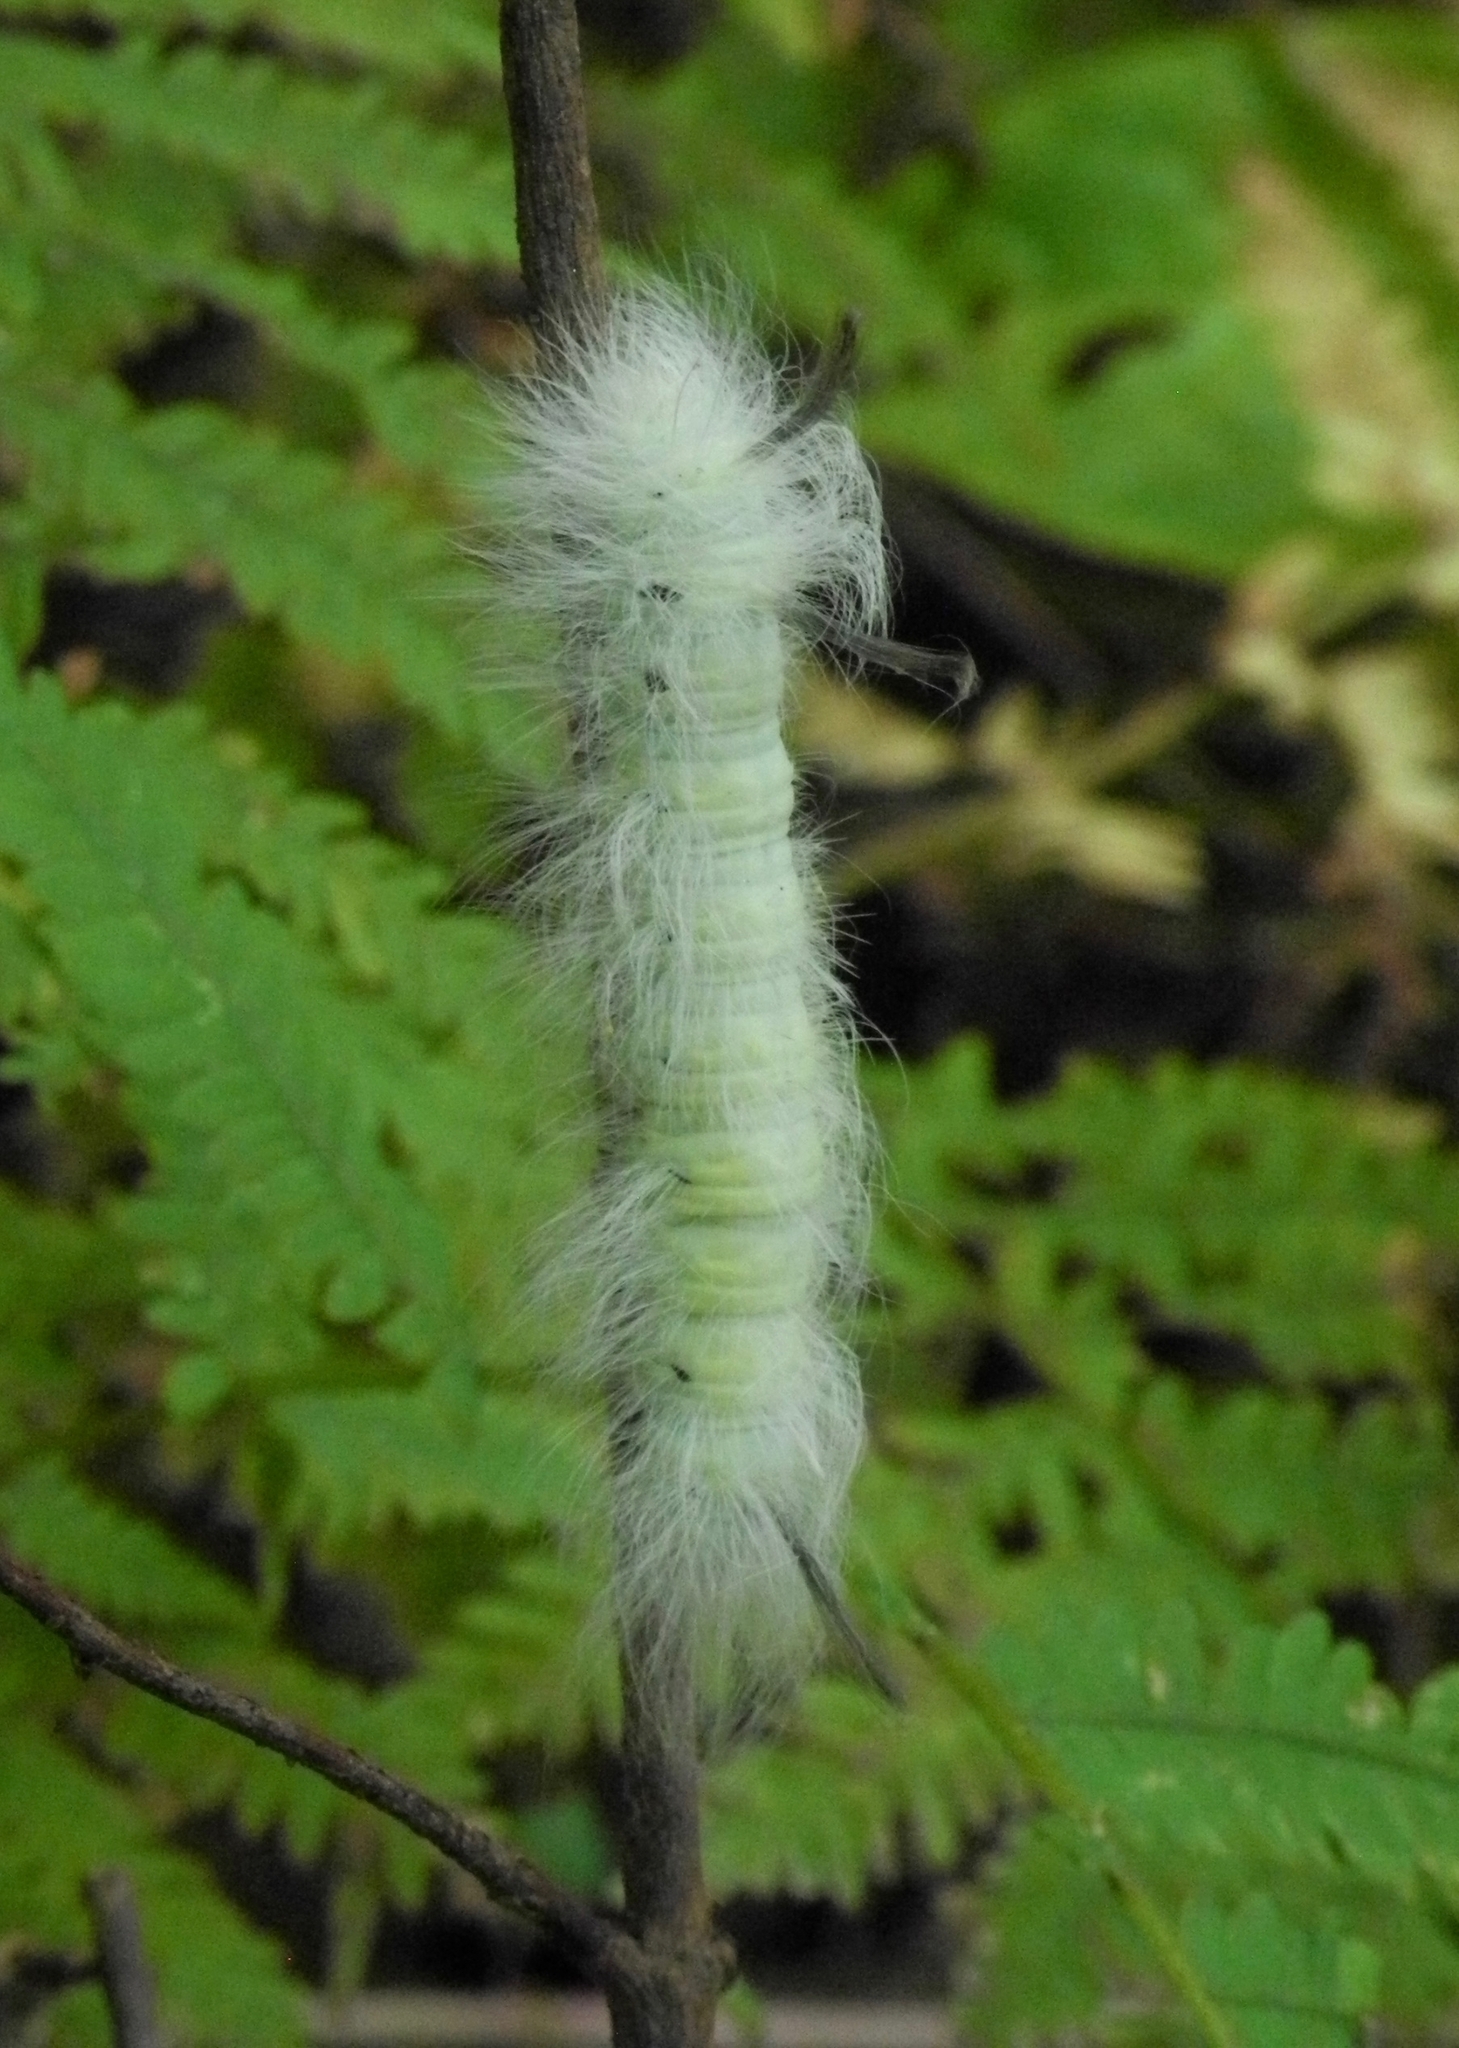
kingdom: Animalia
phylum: Arthropoda
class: Insecta
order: Lepidoptera
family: Apatelodidae
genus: Hygrochroa
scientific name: Hygrochroa Apatelodes torrefacta
